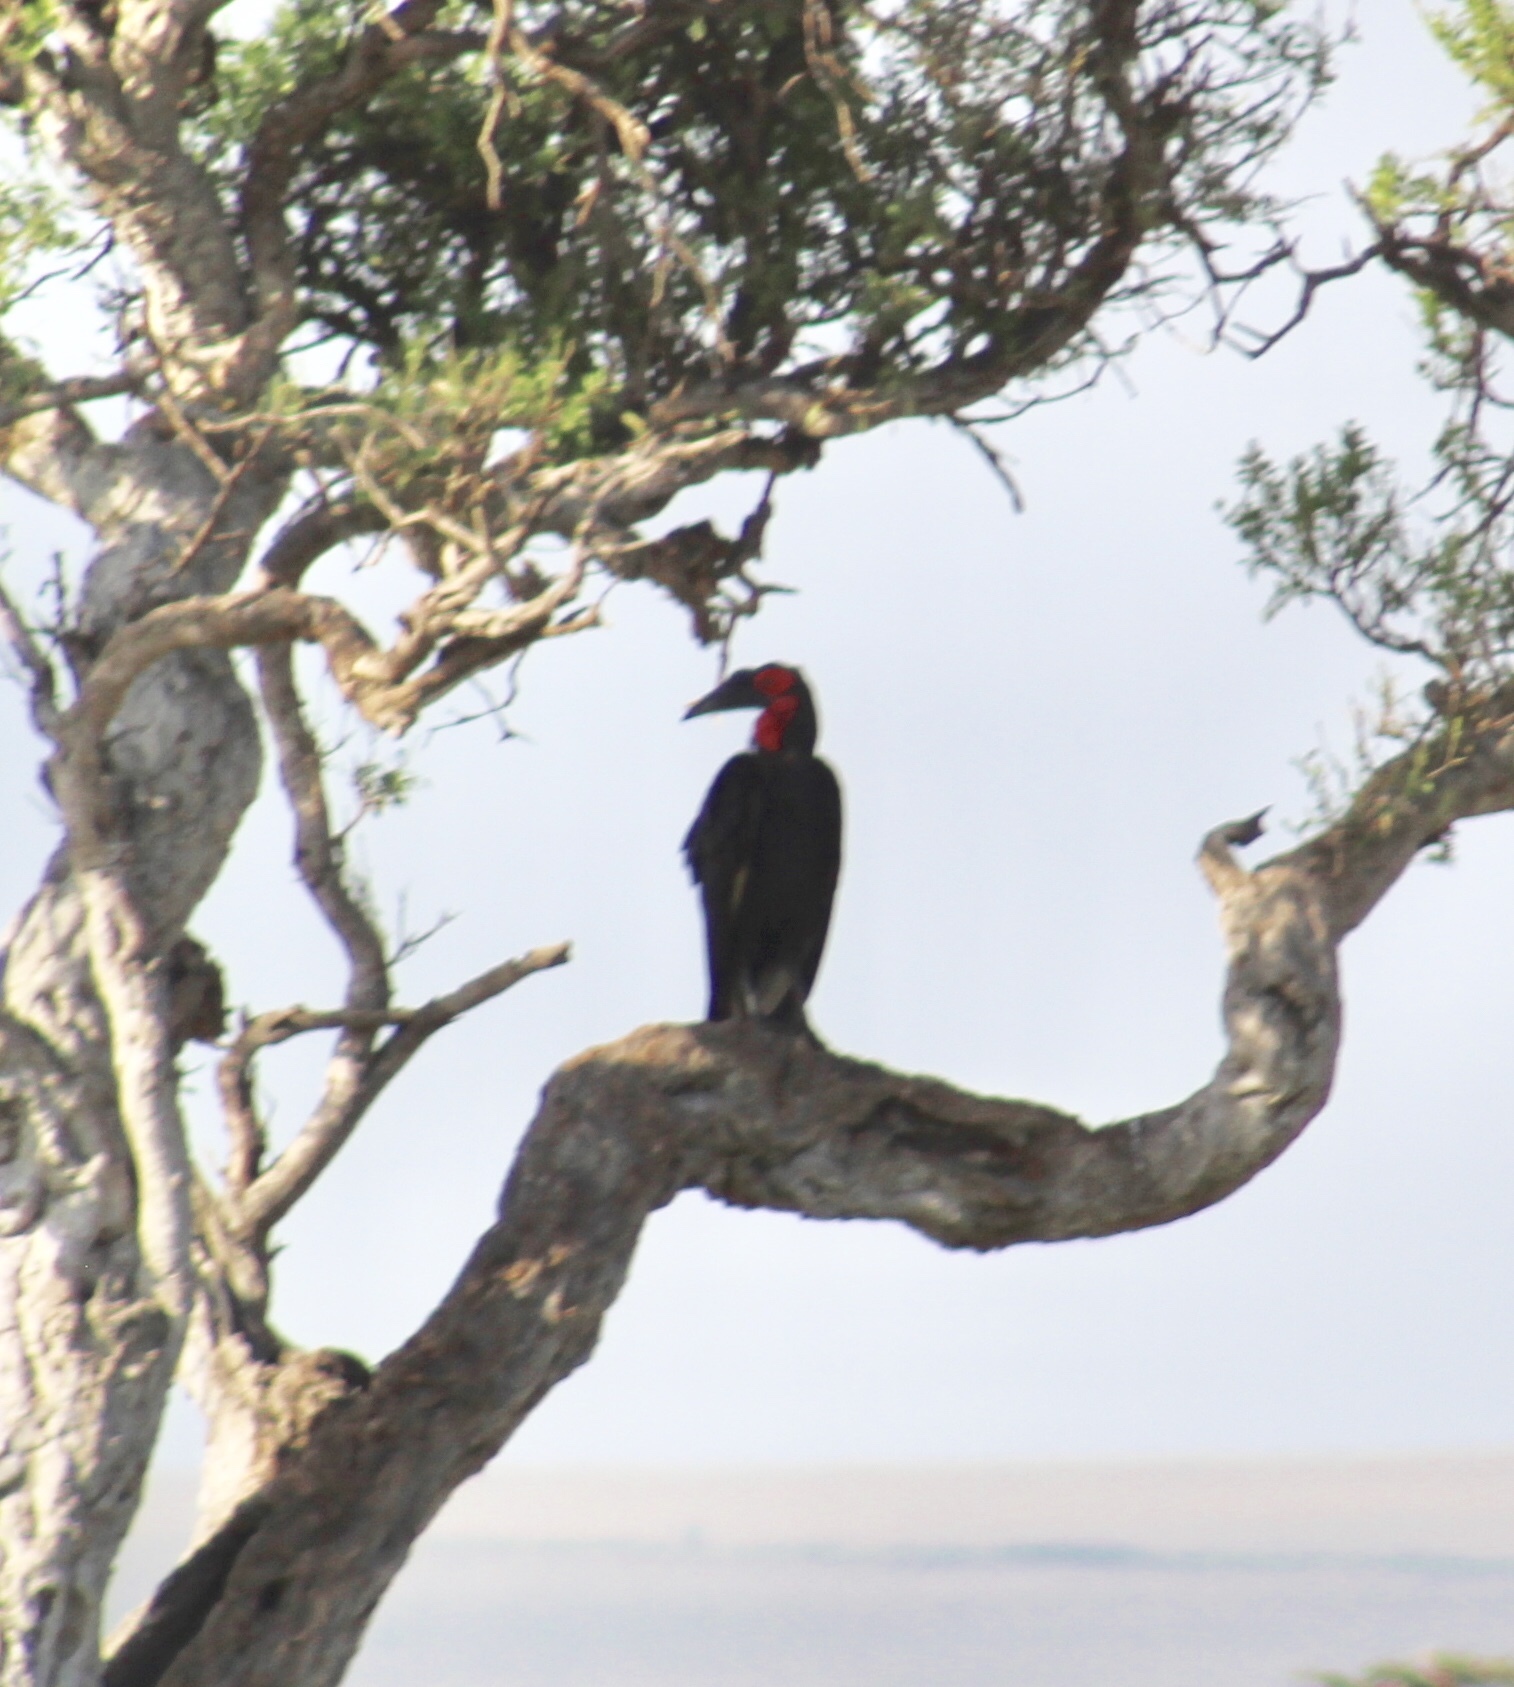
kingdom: Animalia
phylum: Chordata
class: Aves
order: Bucerotiformes
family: Bucorvidae
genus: Bucorvus
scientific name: Bucorvus leadbeateri
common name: Southern ground-hornbill
